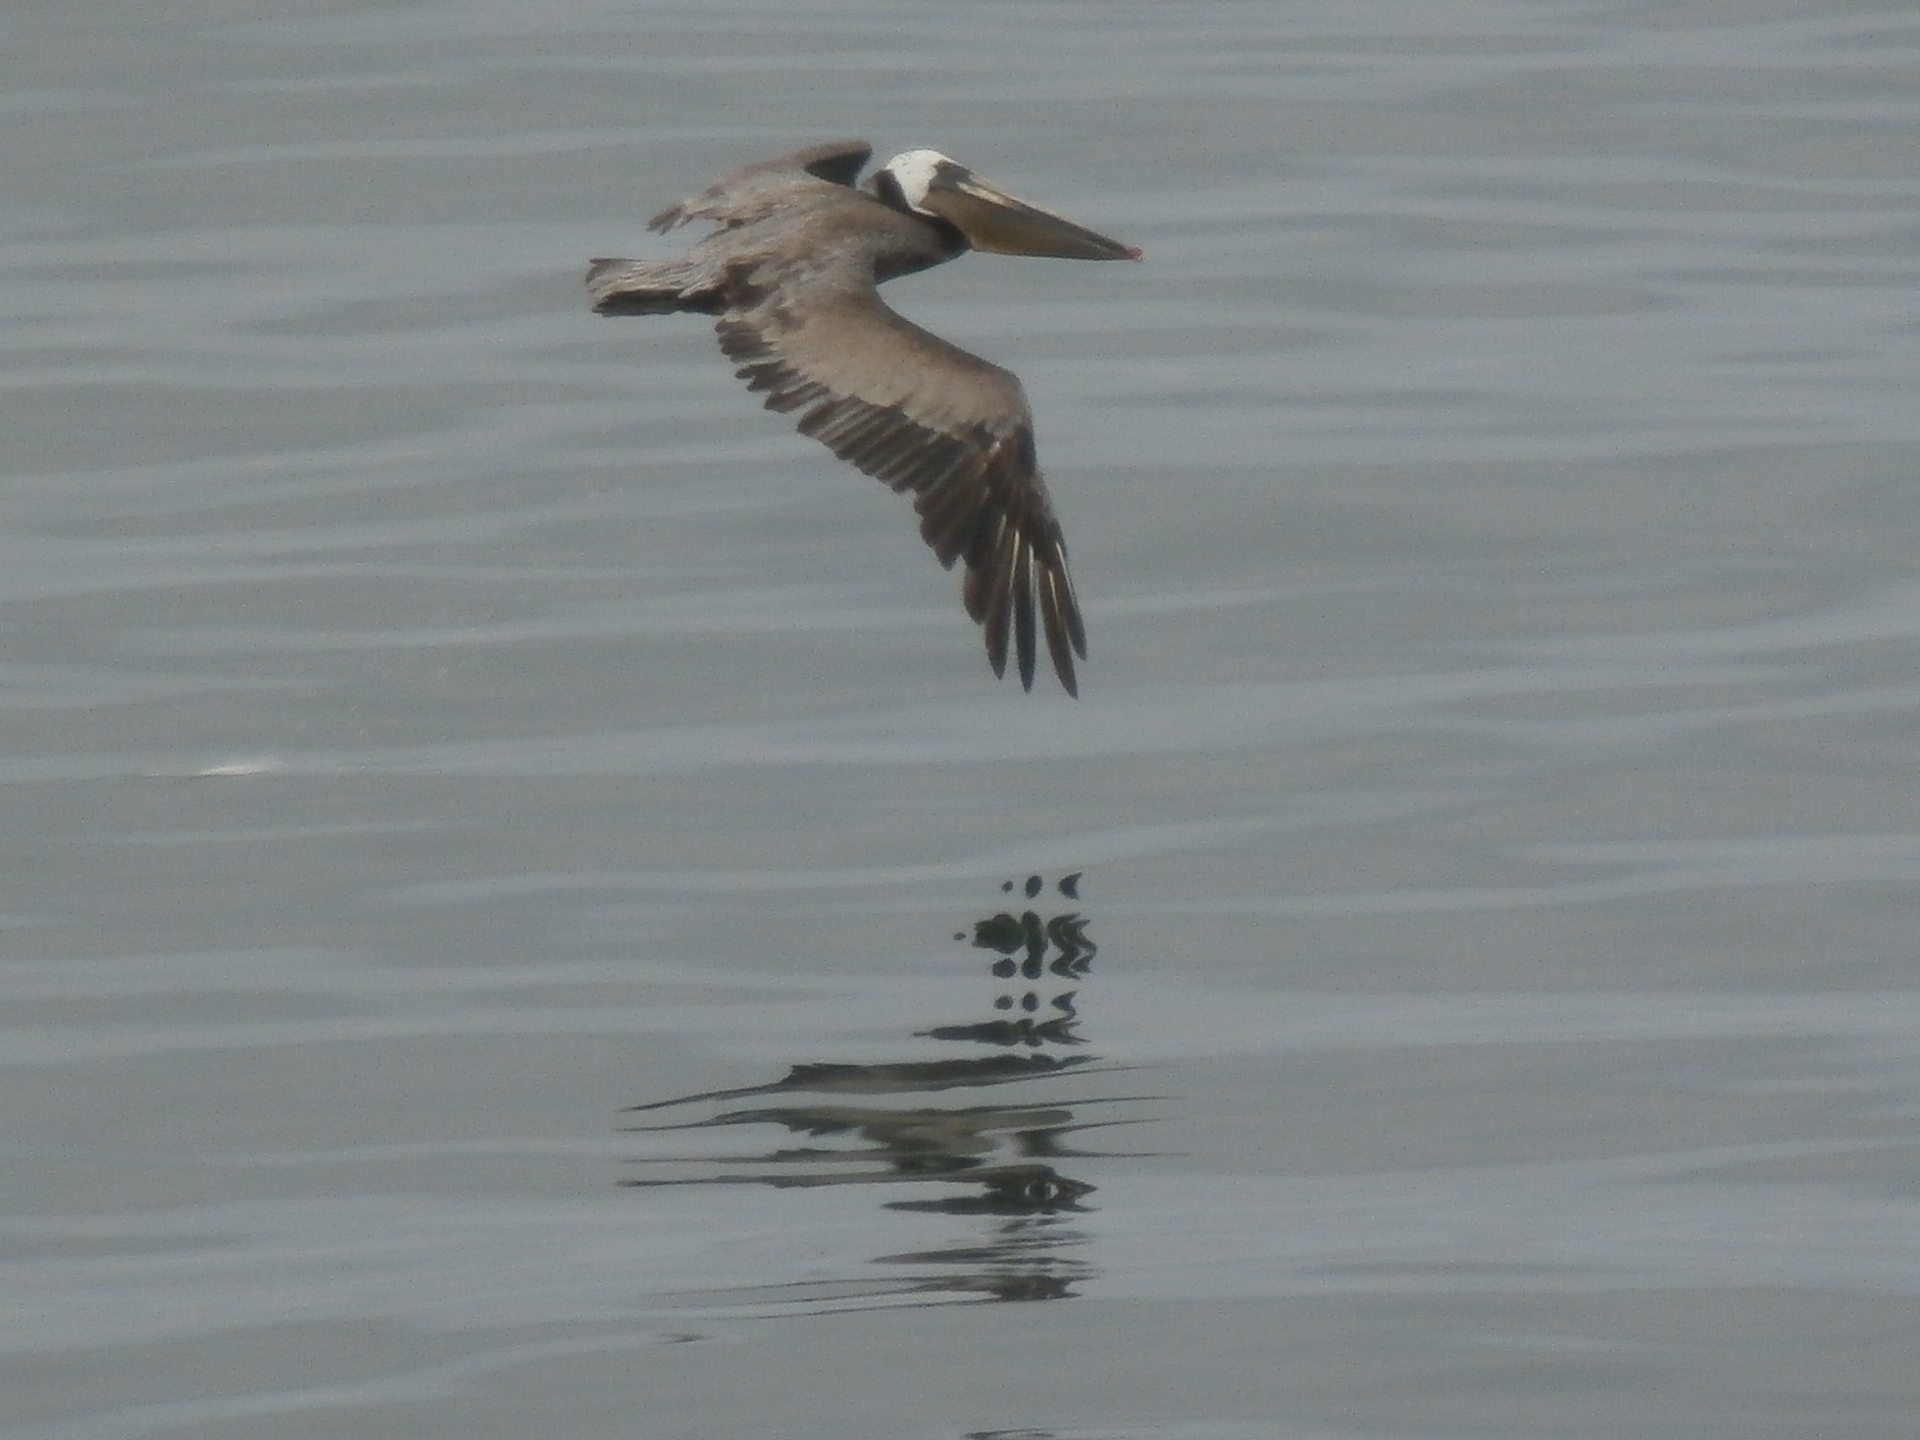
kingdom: Animalia
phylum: Chordata
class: Aves
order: Pelecaniformes
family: Pelecanidae
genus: Pelecanus
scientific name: Pelecanus occidentalis
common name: Brown pelican
